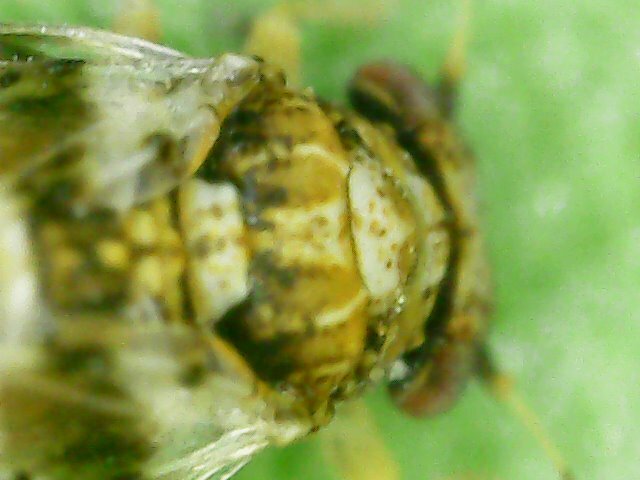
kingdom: Animalia
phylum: Arthropoda
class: Insecta
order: Hemiptera
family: Aphalaridae
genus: Aphalara
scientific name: Aphalara itadori
